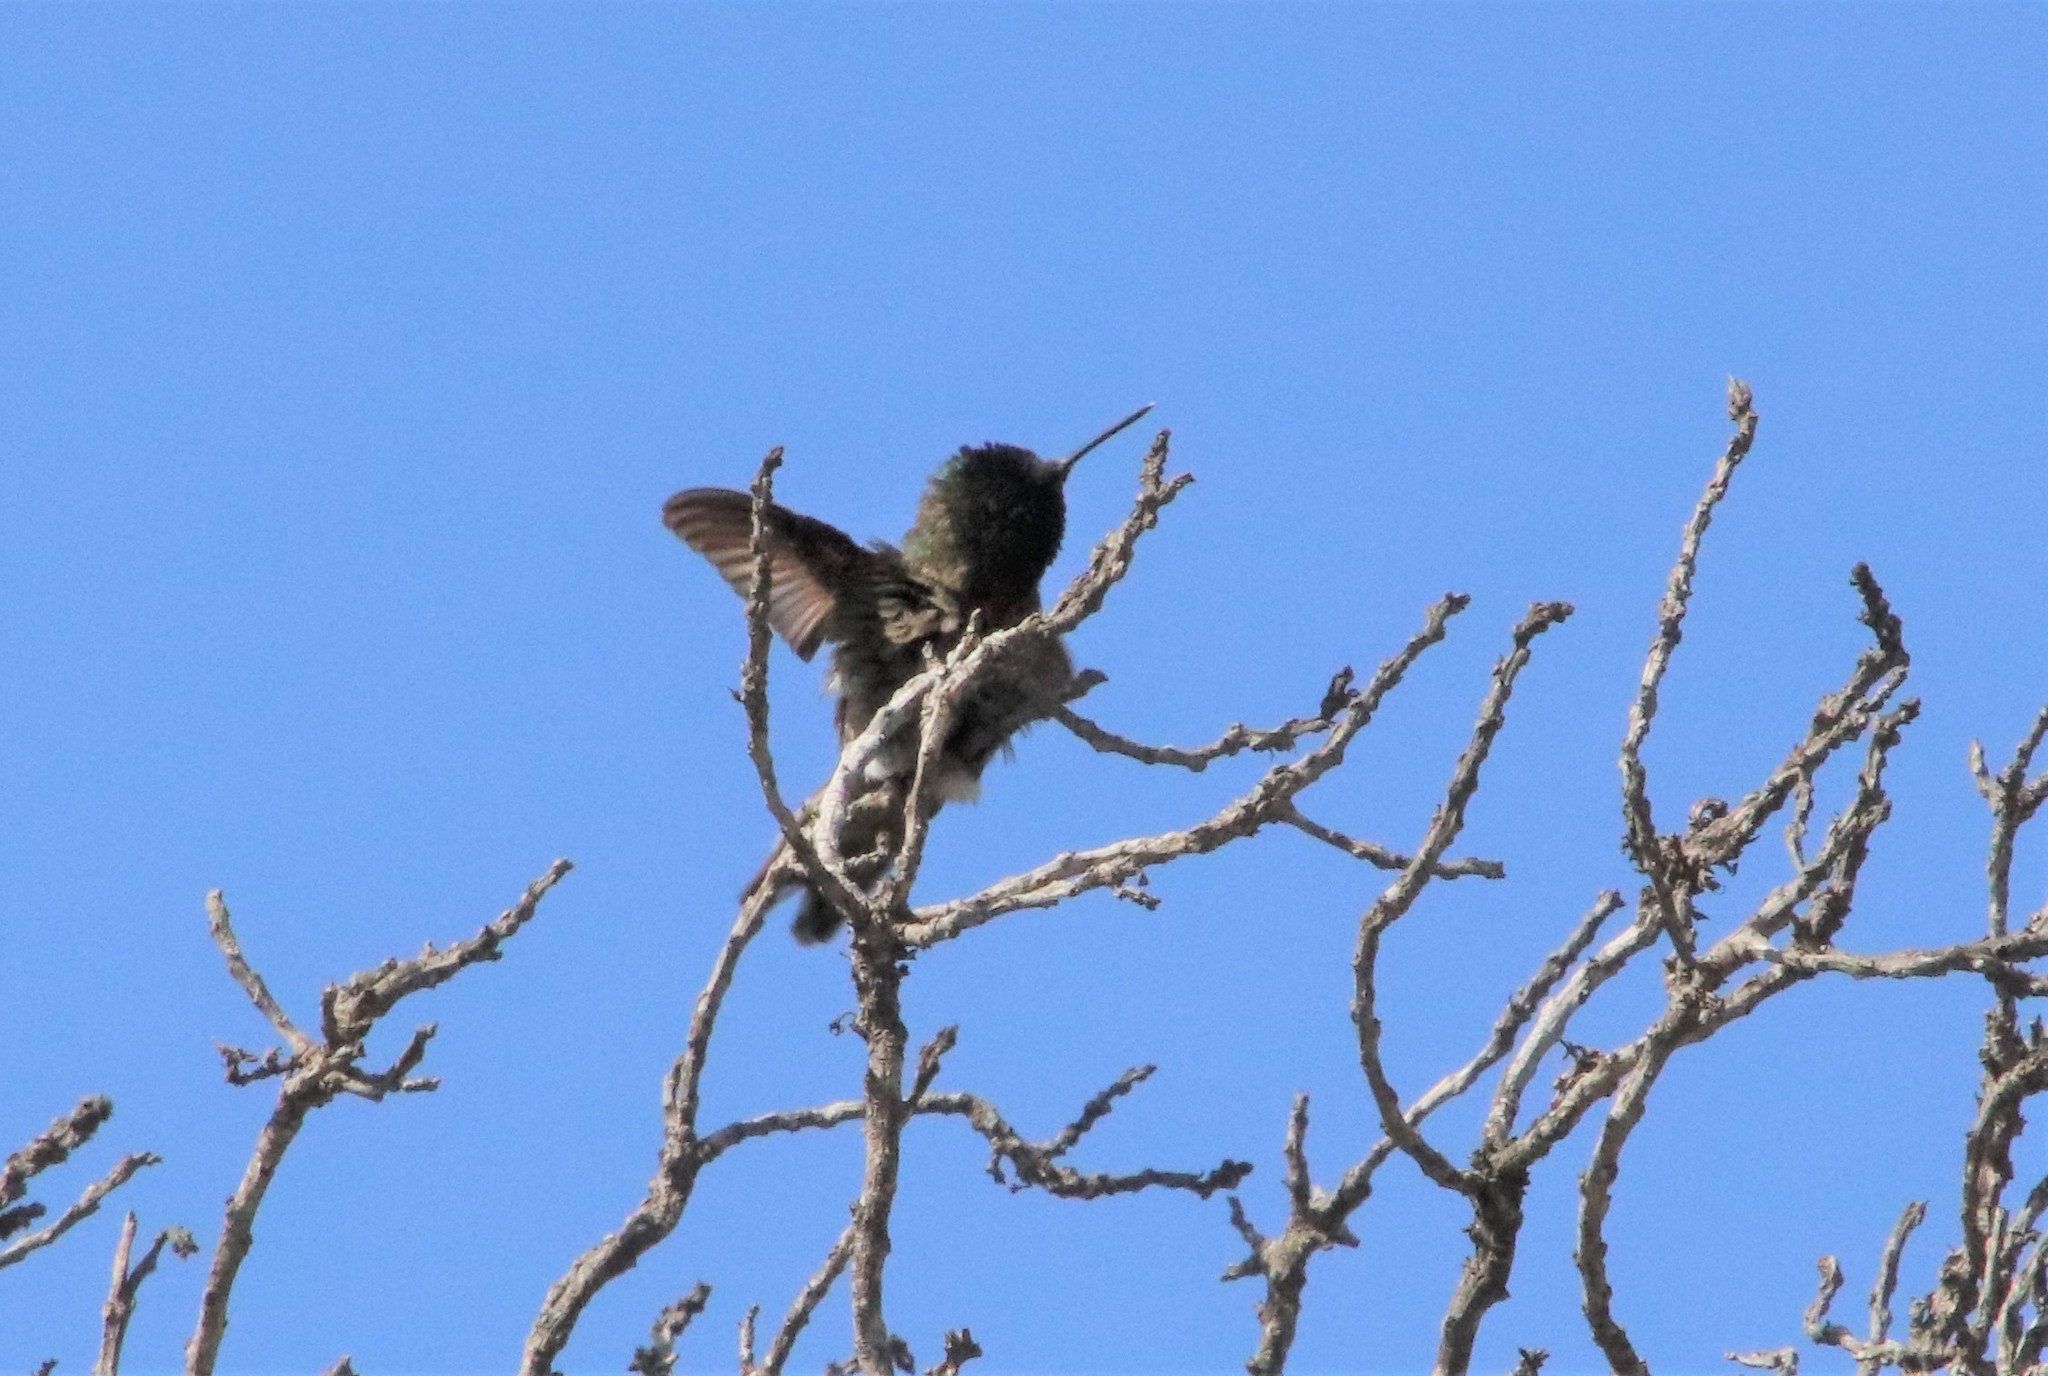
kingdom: Animalia
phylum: Chordata
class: Aves
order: Apodiformes
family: Trochilidae
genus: Calypte
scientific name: Calypte anna
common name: Anna's hummingbird
